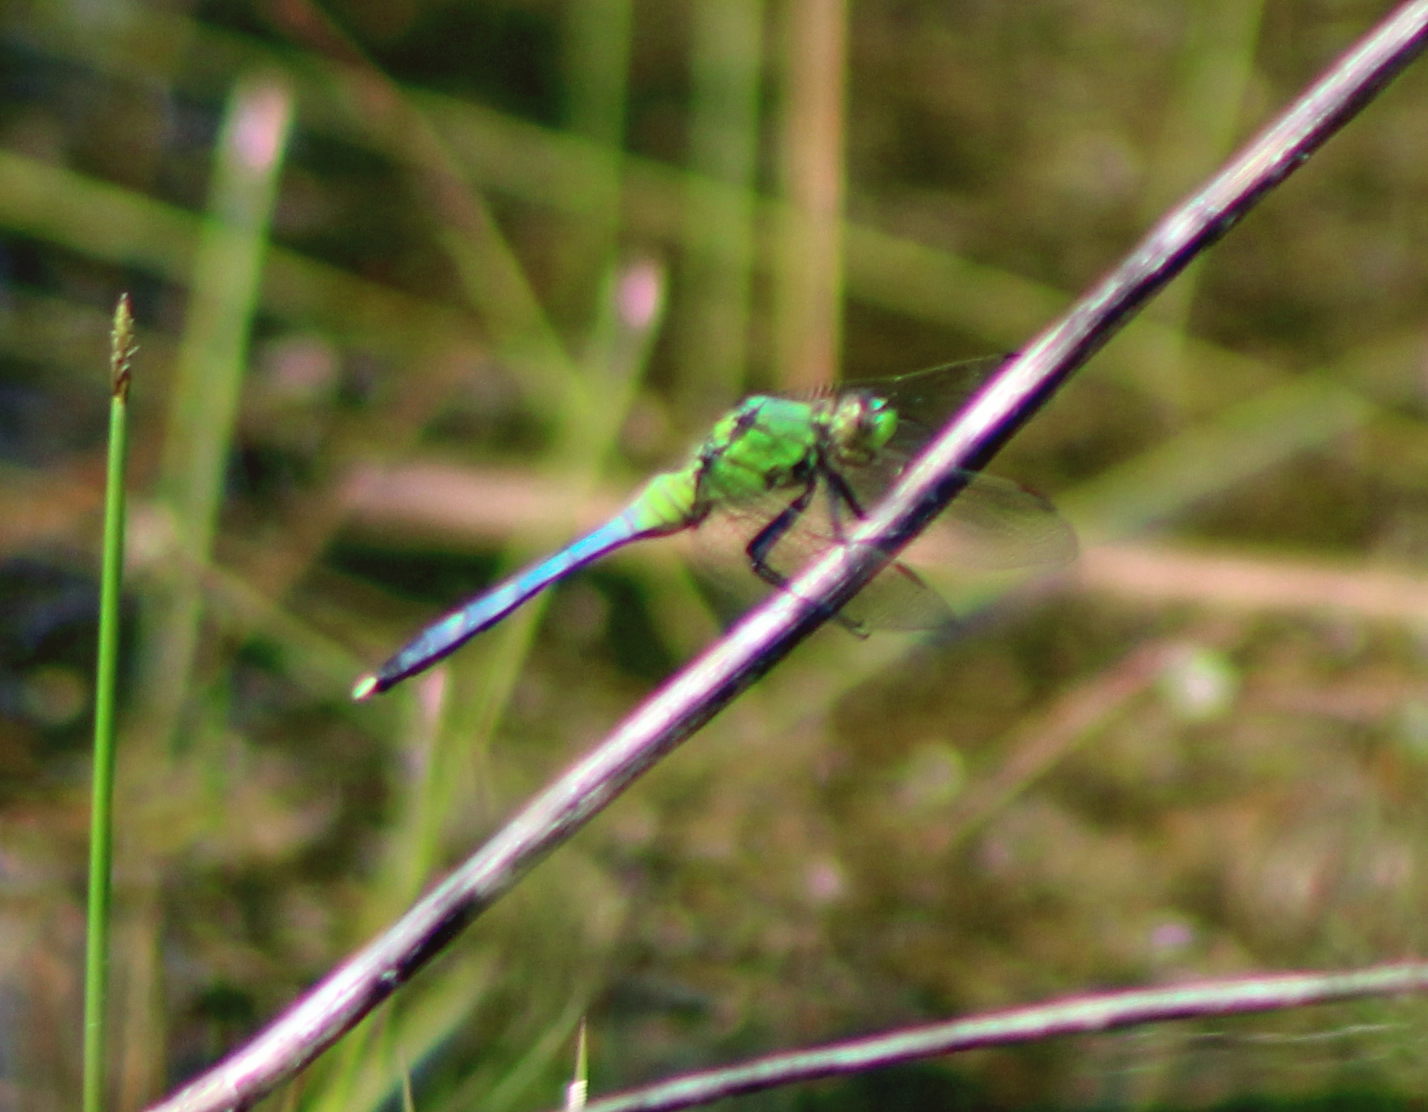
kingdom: Animalia
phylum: Arthropoda
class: Insecta
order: Odonata
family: Aeshnidae
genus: Anax
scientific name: Anax junius
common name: Common green darner
